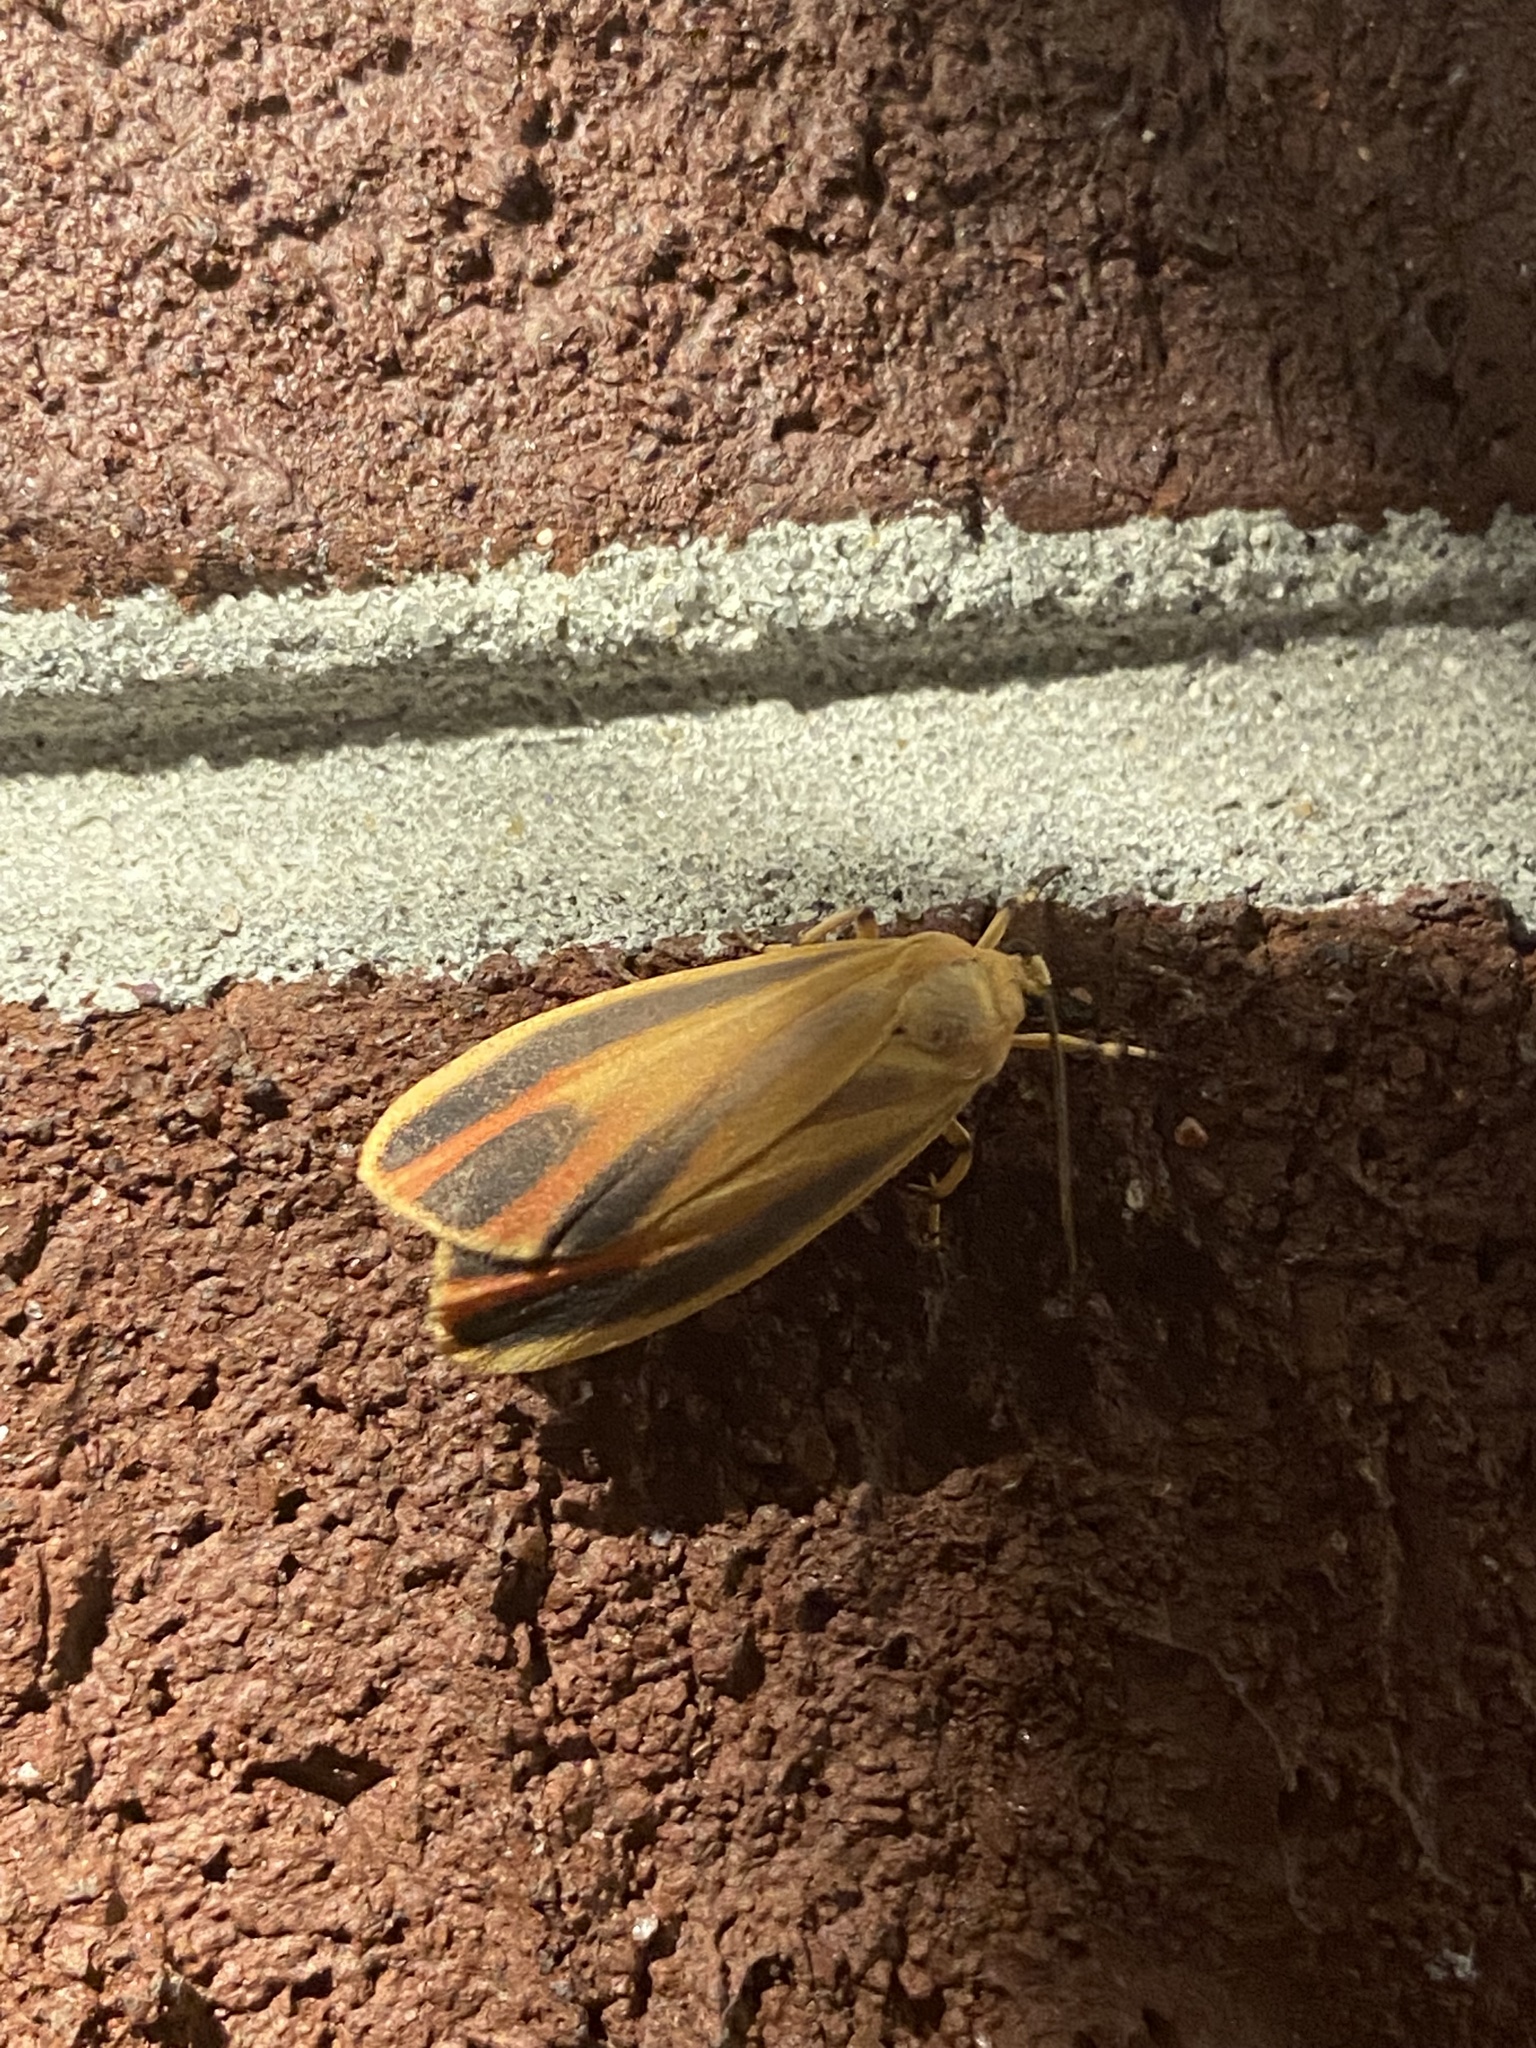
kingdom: Animalia
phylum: Arthropoda
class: Insecta
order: Lepidoptera
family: Erebidae
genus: Hypoprepia
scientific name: Hypoprepia fucosa
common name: Painted lichen moth
